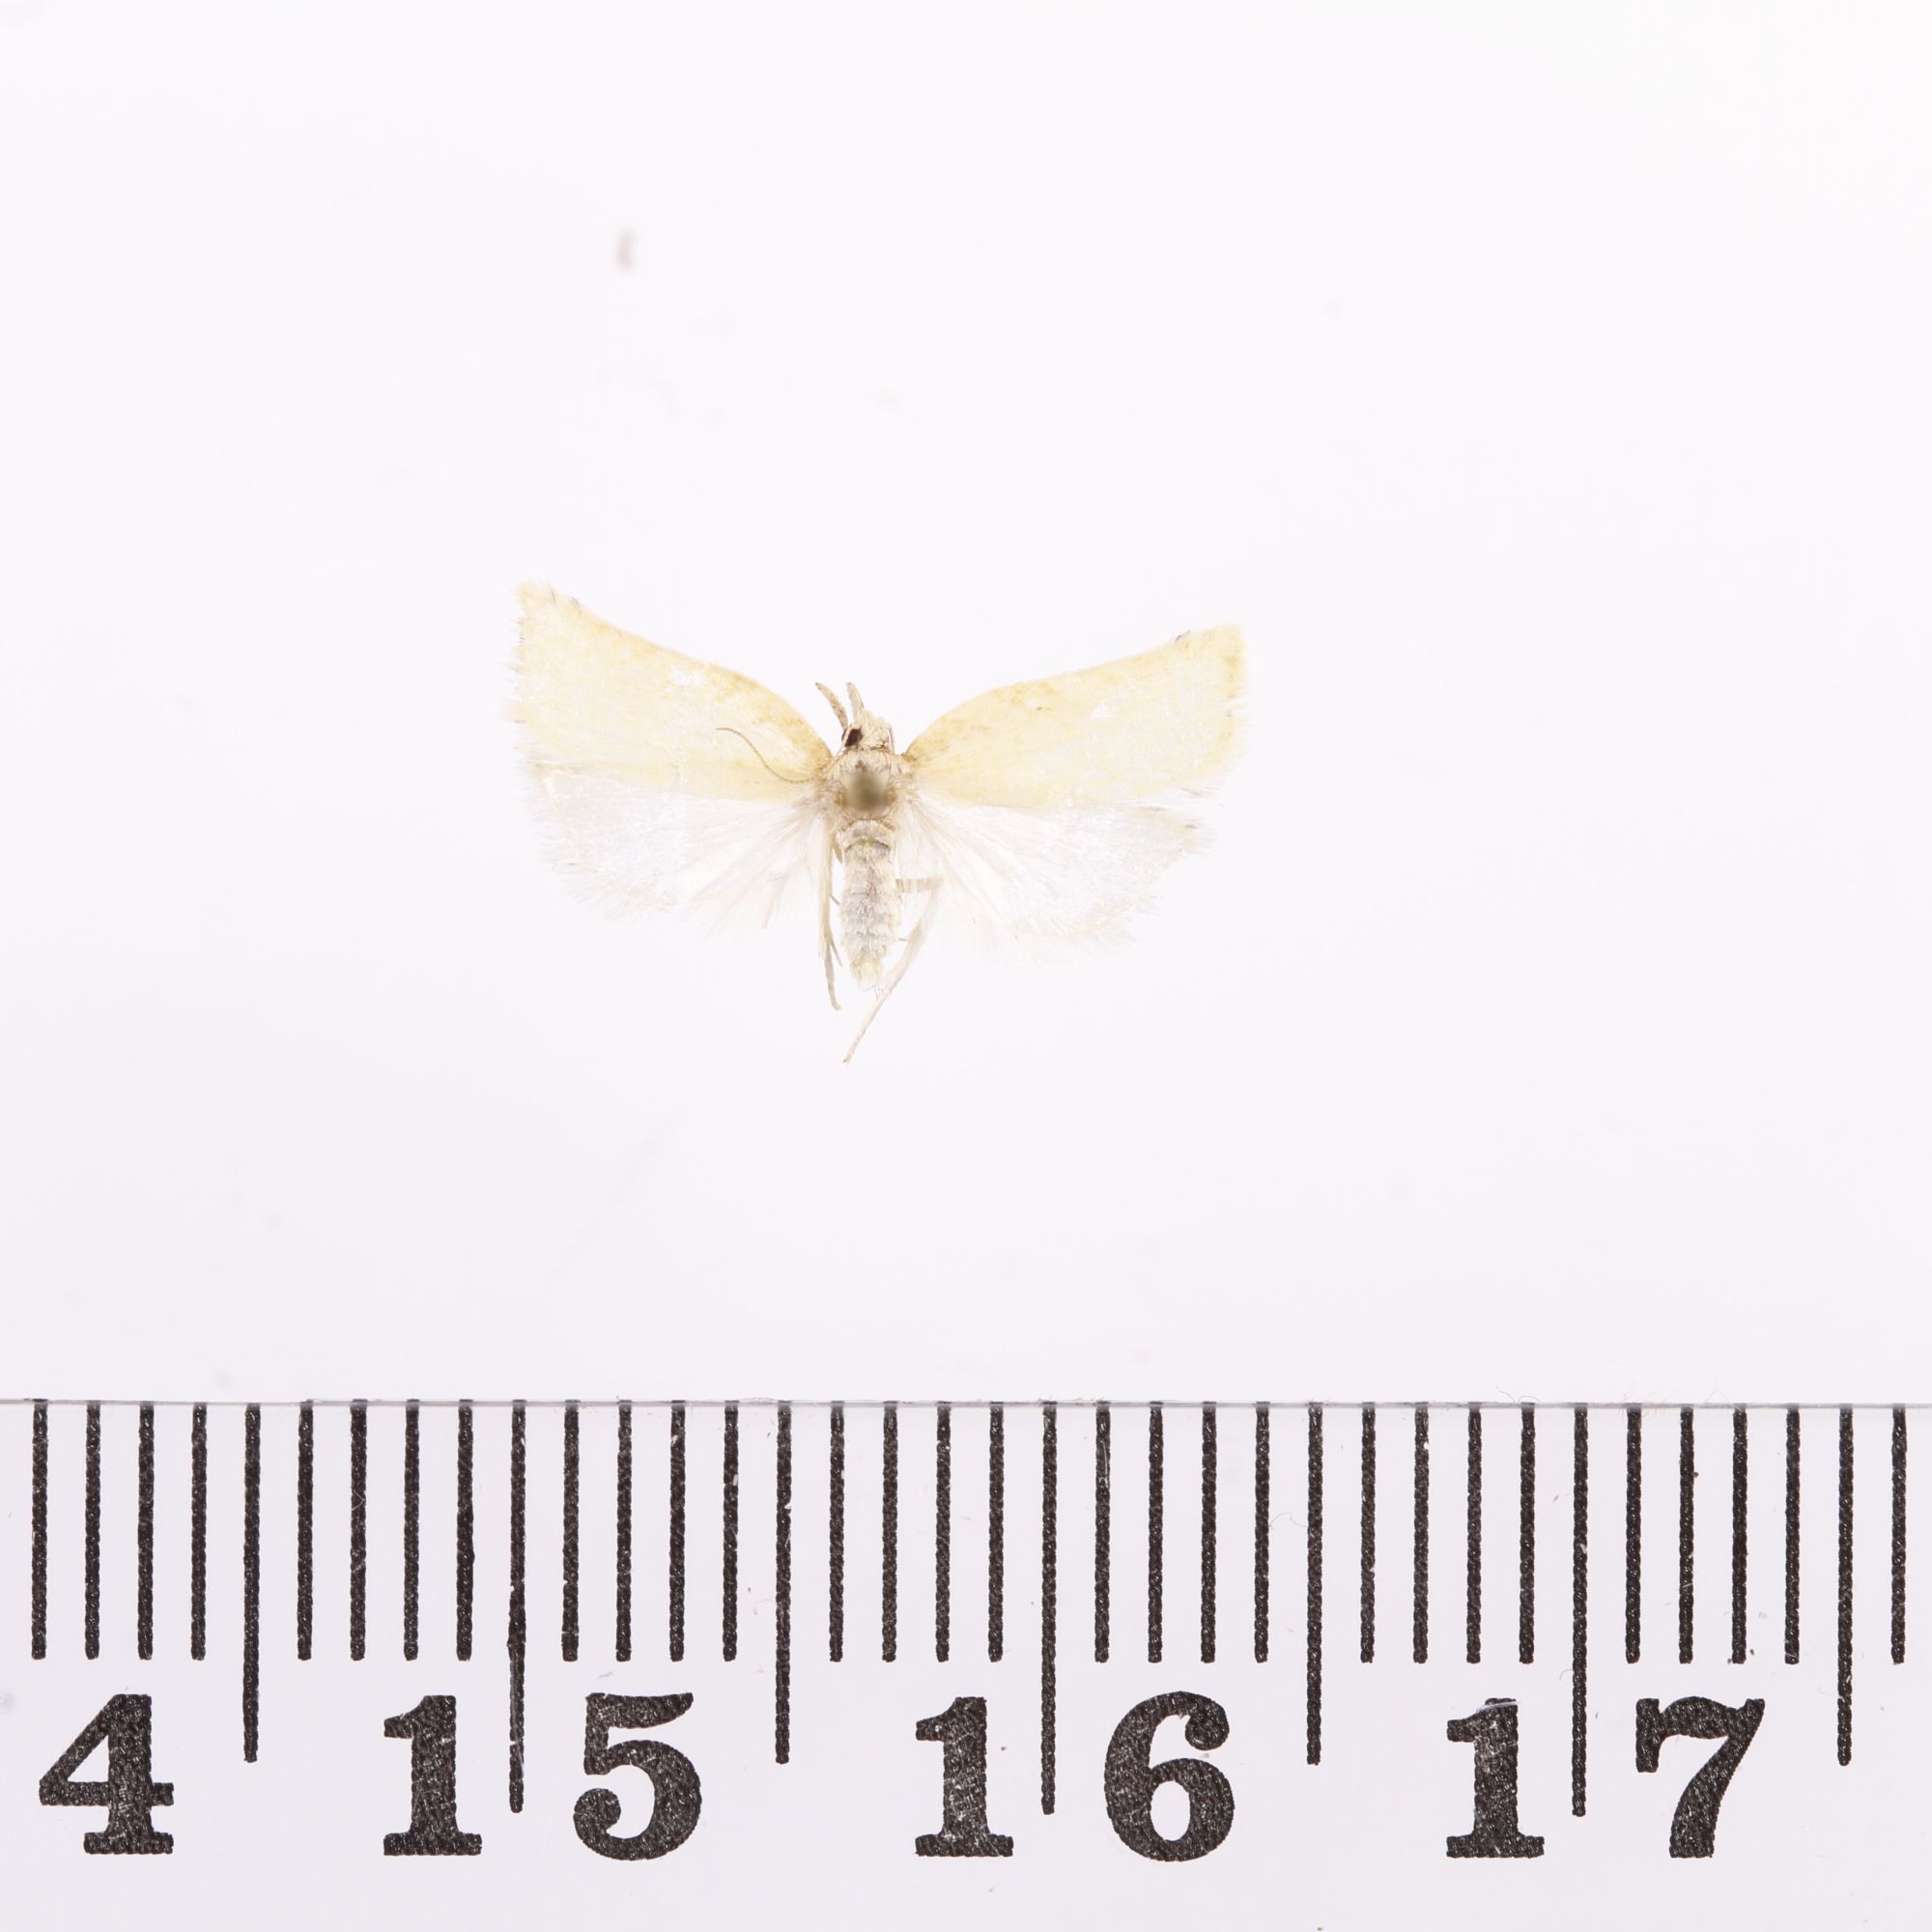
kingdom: Animalia
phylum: Arthropoda
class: Insecta
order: Lepidoptera
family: Tortricidae
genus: Catamacta
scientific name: Catamacta gavisana
